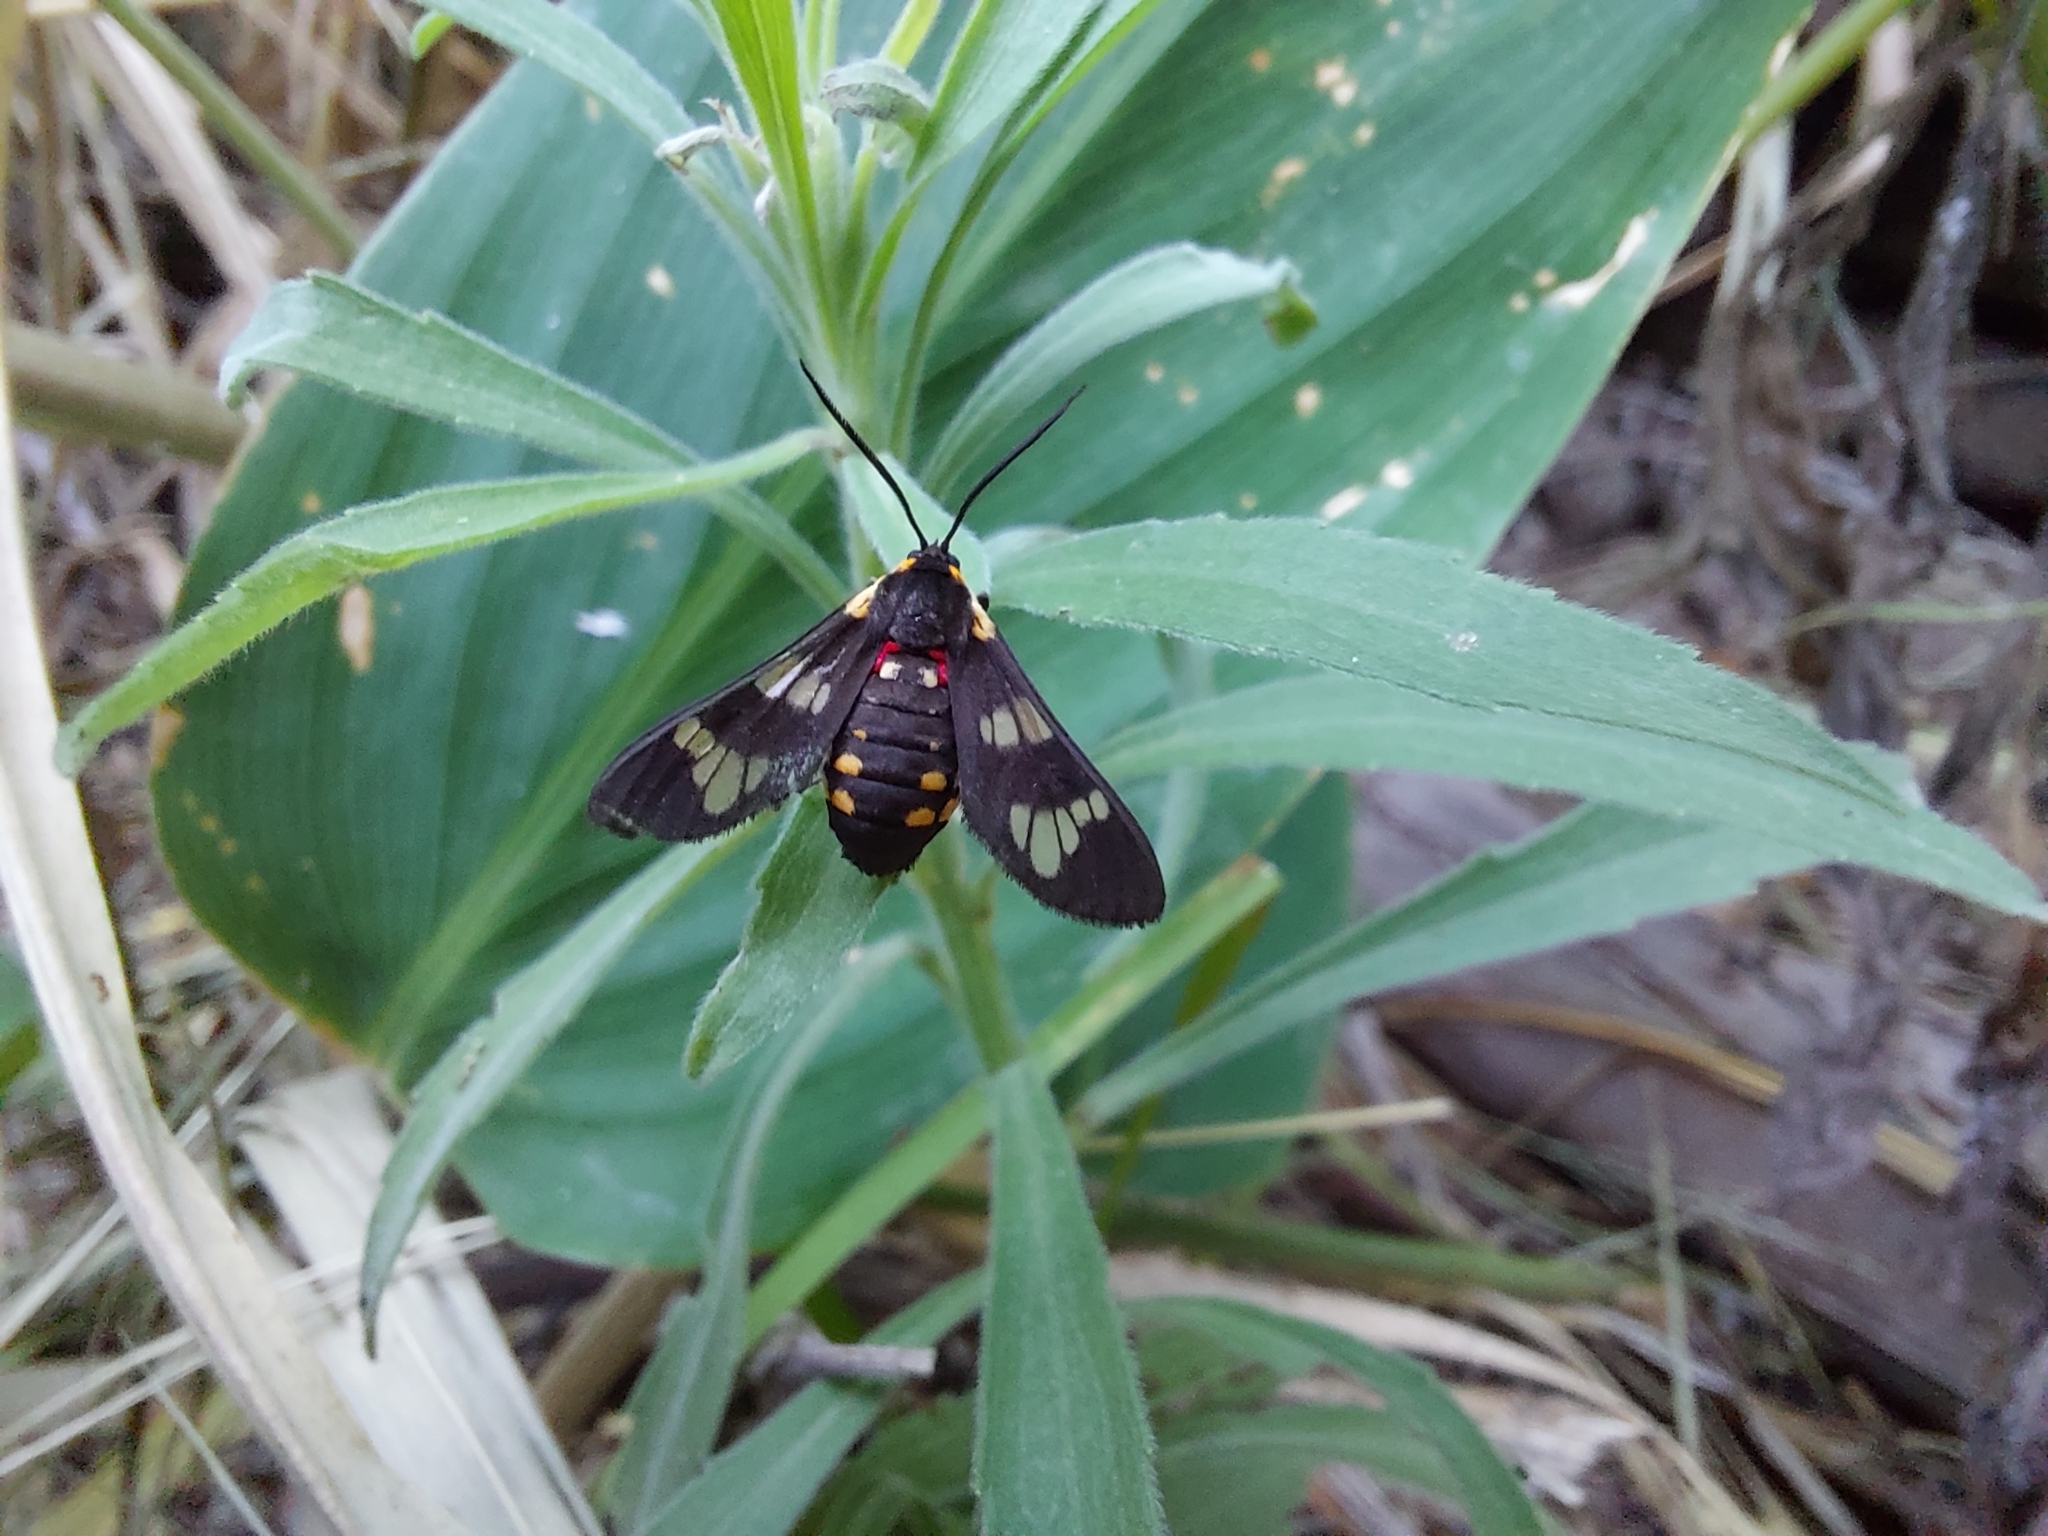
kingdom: Animalia
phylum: Arthropoda
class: Insecta
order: Lepidoptera
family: Erebidae
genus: Eurata
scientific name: Eurata hermione
